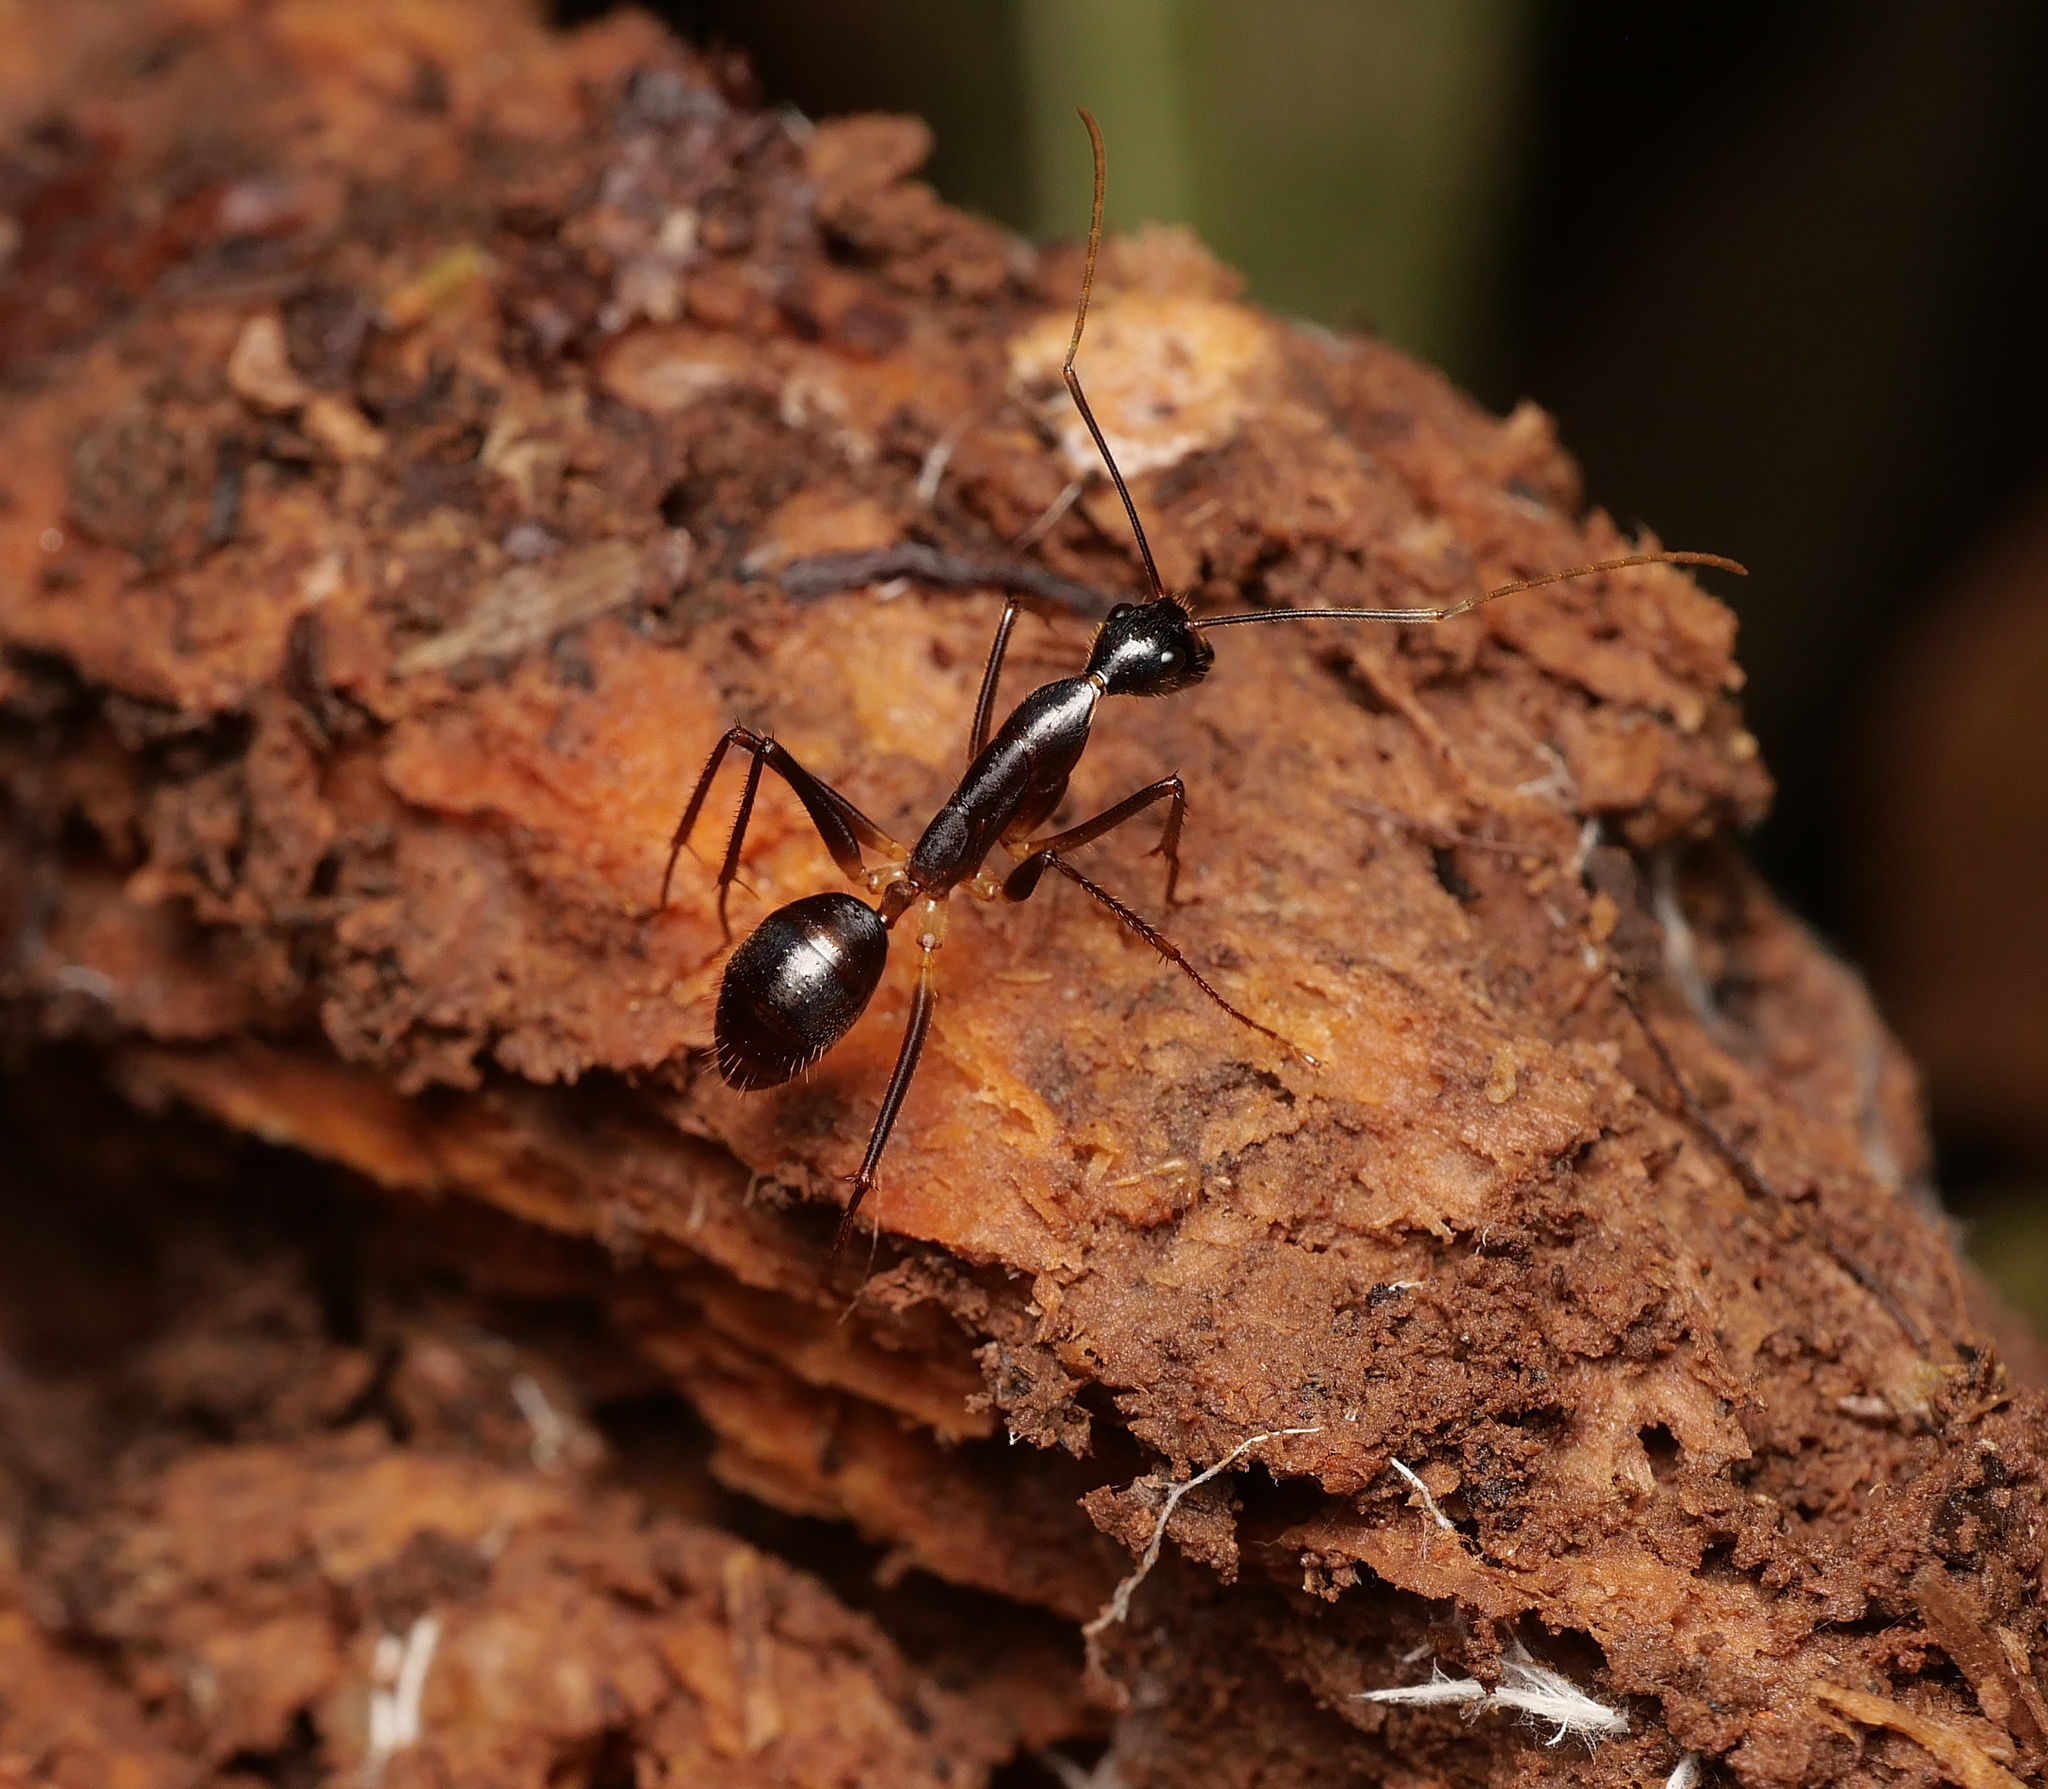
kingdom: Animalia
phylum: Arthropoda
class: Insecta
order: Hymenoptera
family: Formicidae
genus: Camponotus
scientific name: Camponotus dorycus
